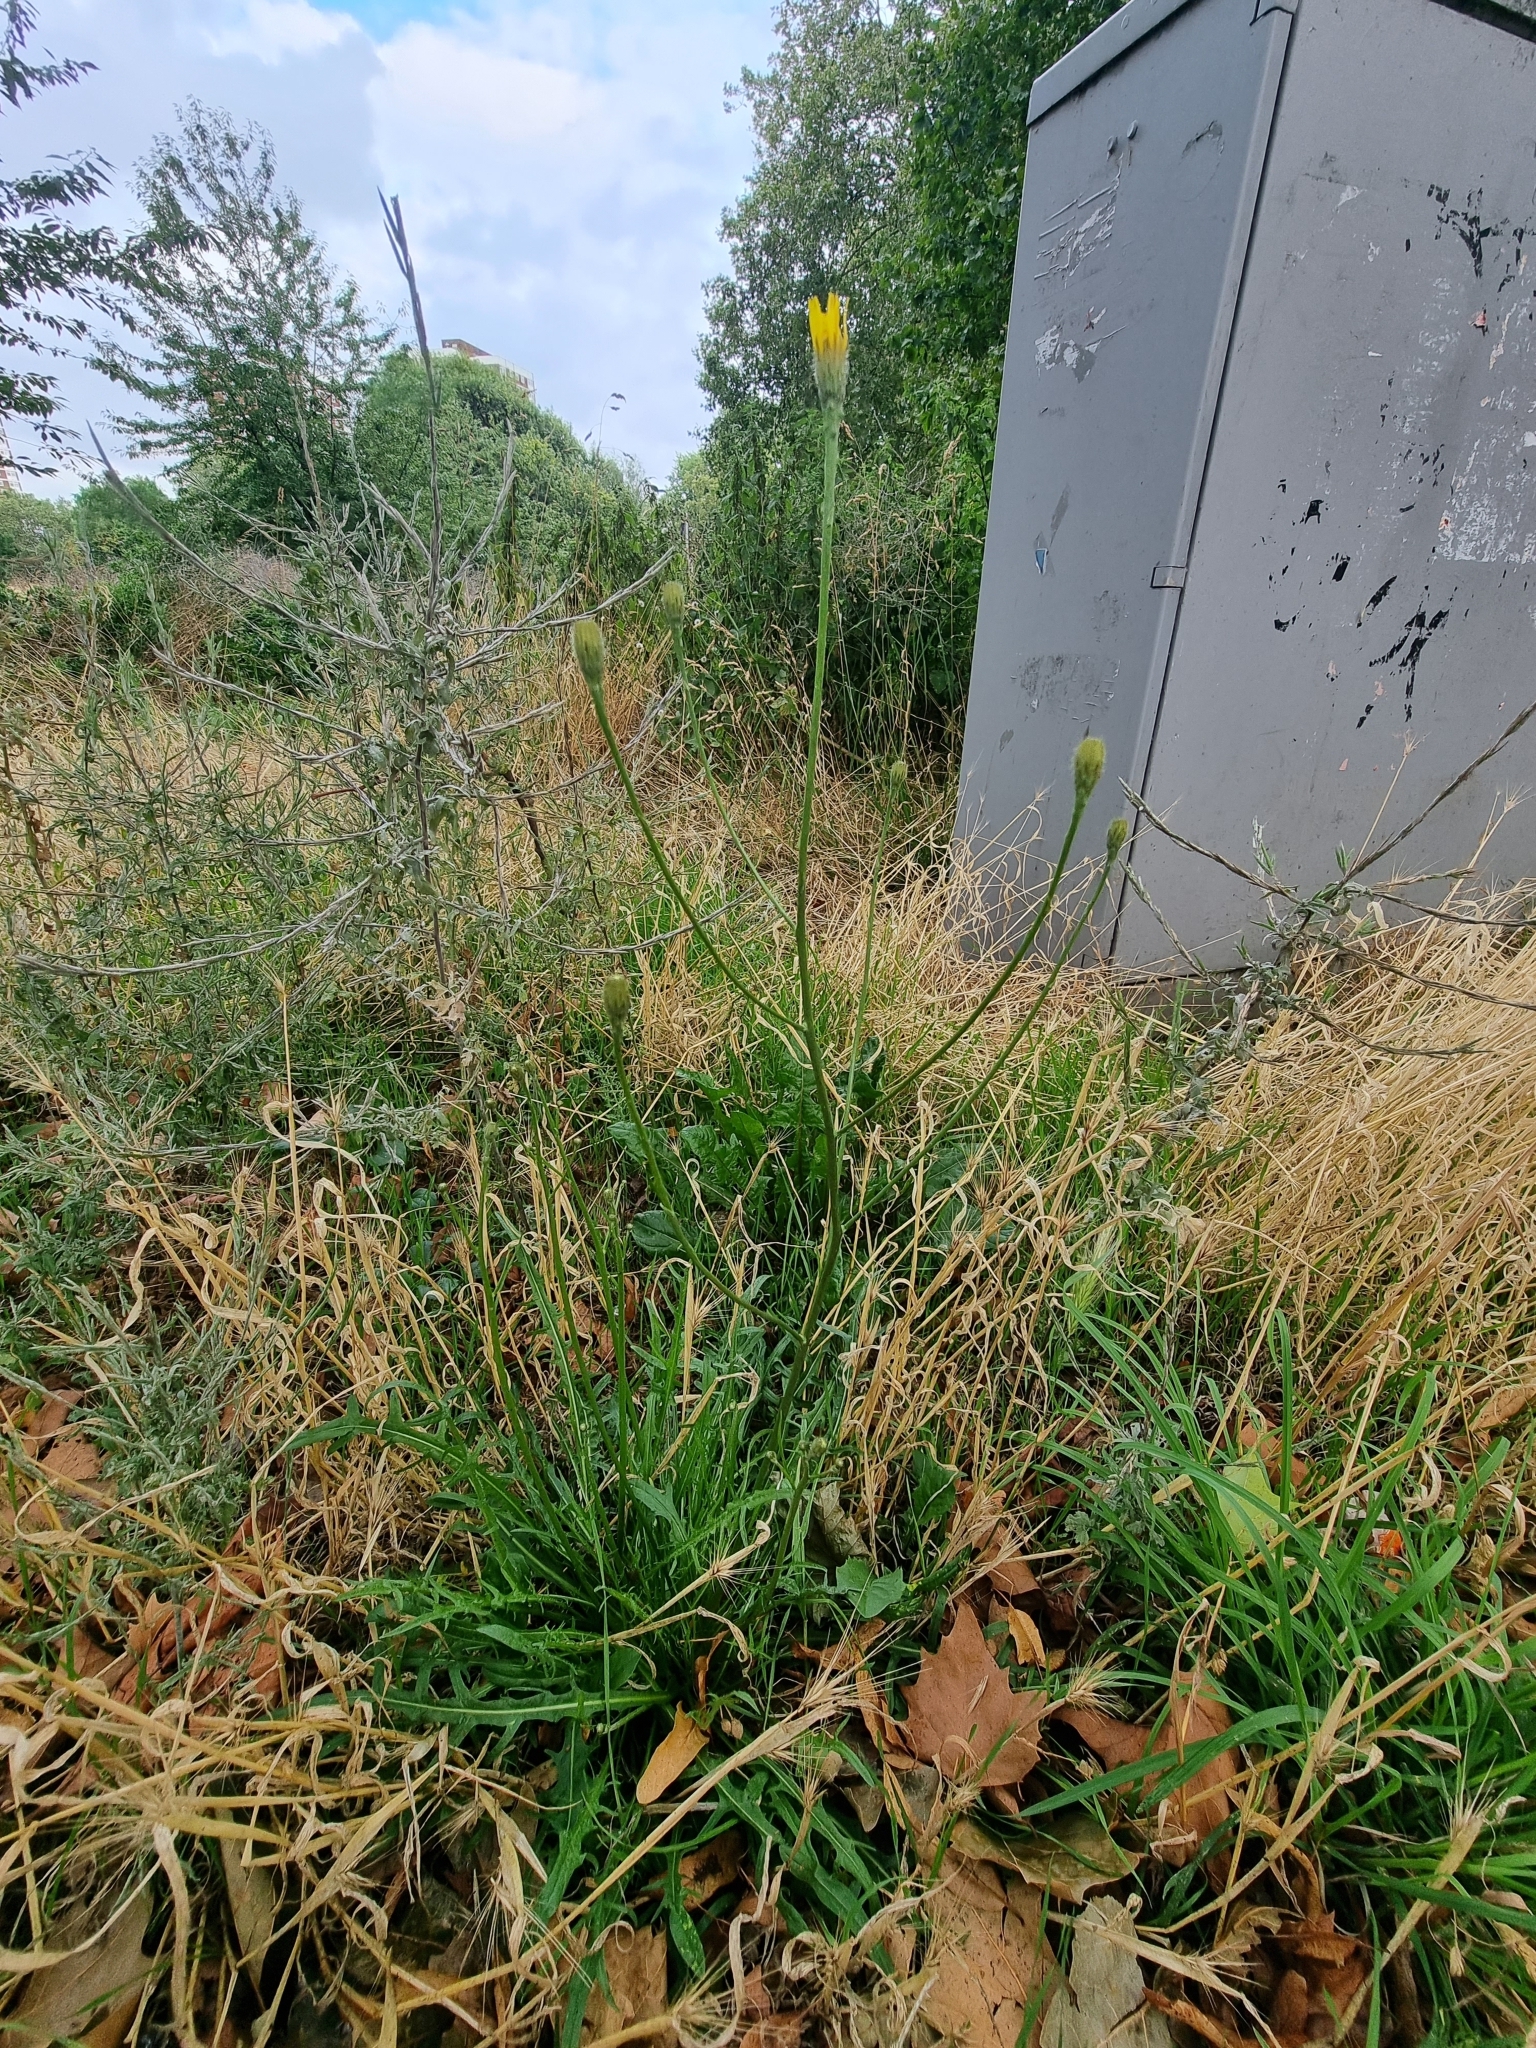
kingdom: Plantae
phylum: Tracheophyta
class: Magnoliopsida
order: Asterales
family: Asteraceae
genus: Scorzoneroides
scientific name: Scorzoneroides autumnalis
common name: Autumn hawkbit
